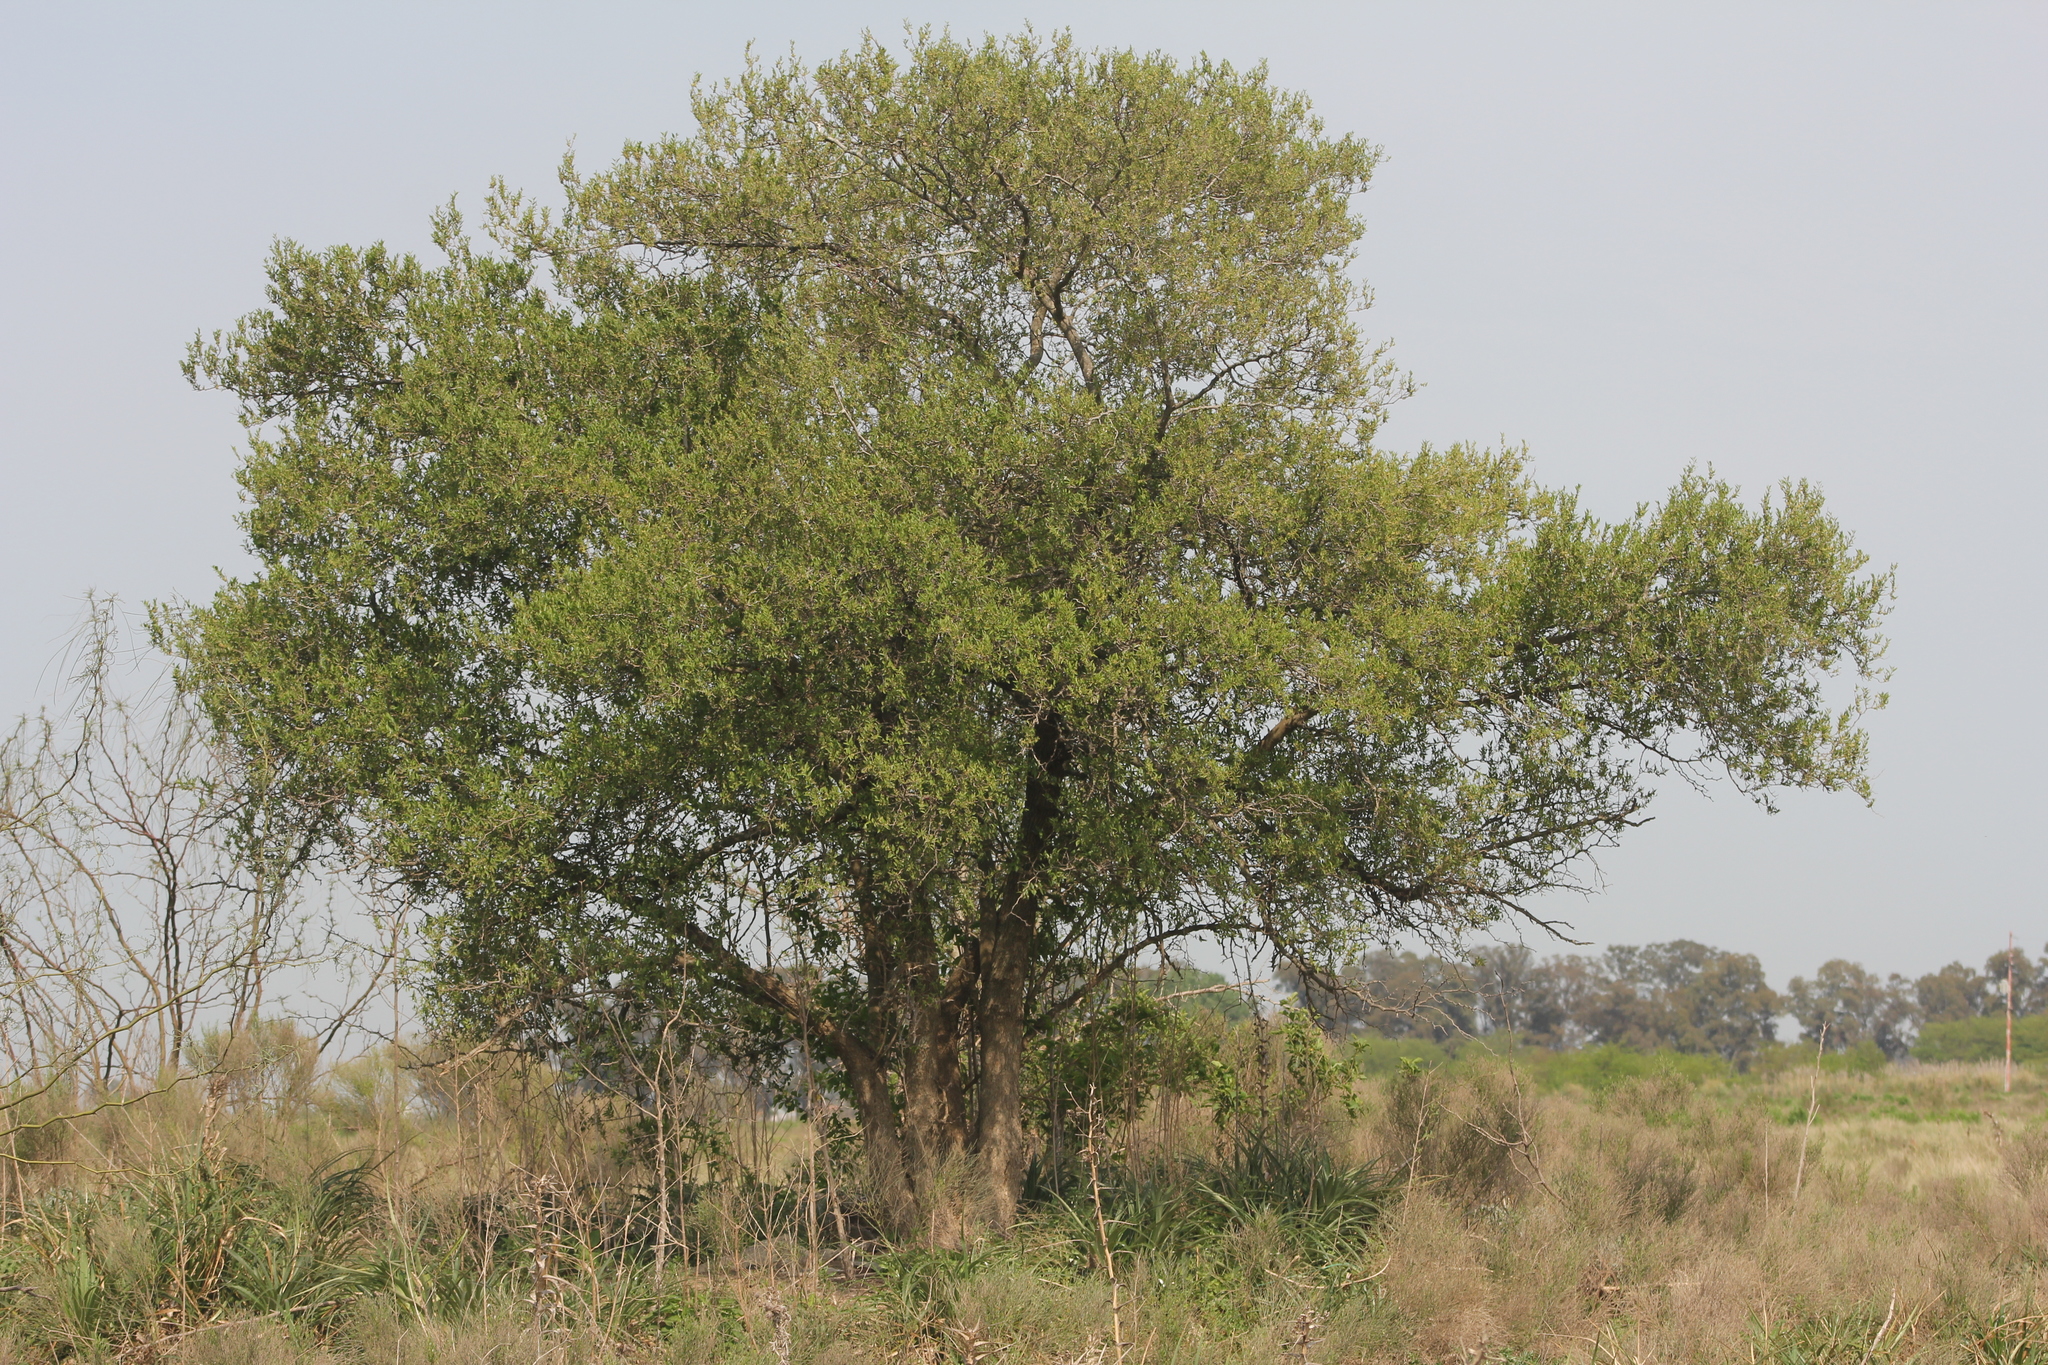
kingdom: Plantae
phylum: Tracheophyta
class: Magnoliopsida
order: Rosales
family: Cannabaceae
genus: Celtis
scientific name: Celtis tala
